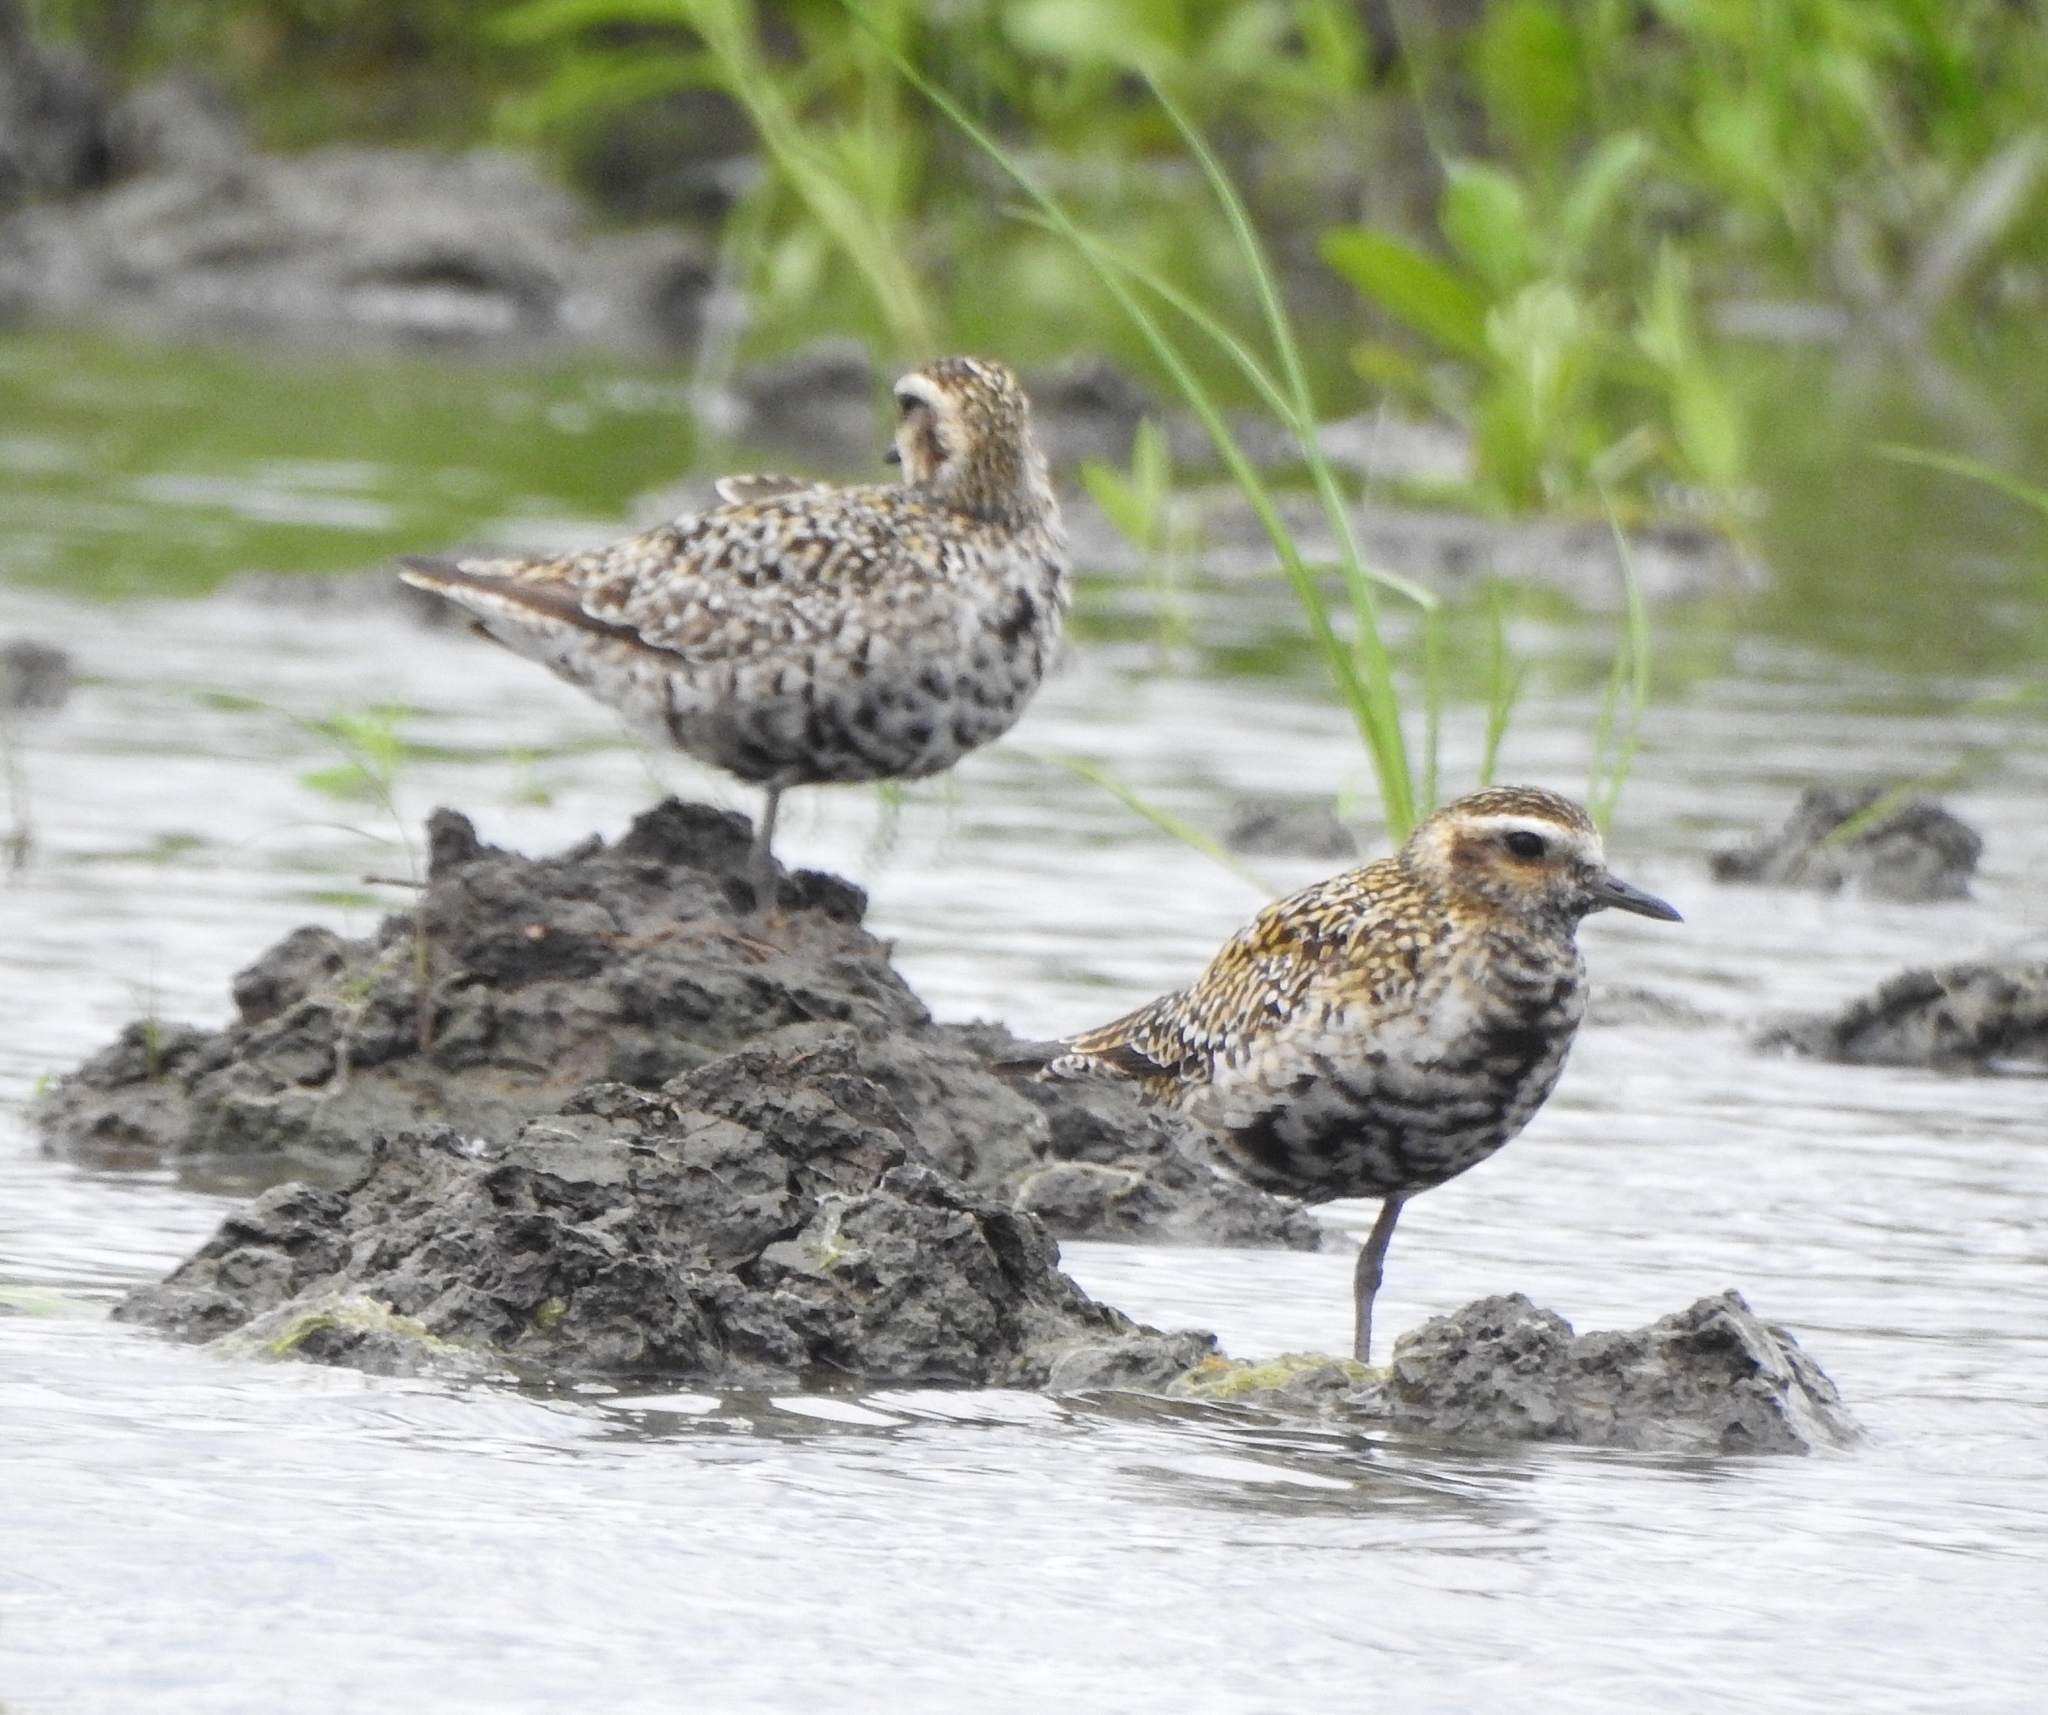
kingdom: Animalia
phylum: Chordata
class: Aves
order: Charadriiformes
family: Charadriidae
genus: Pluvialis
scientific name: Pluvialis fulva
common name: Pacific golden plover
